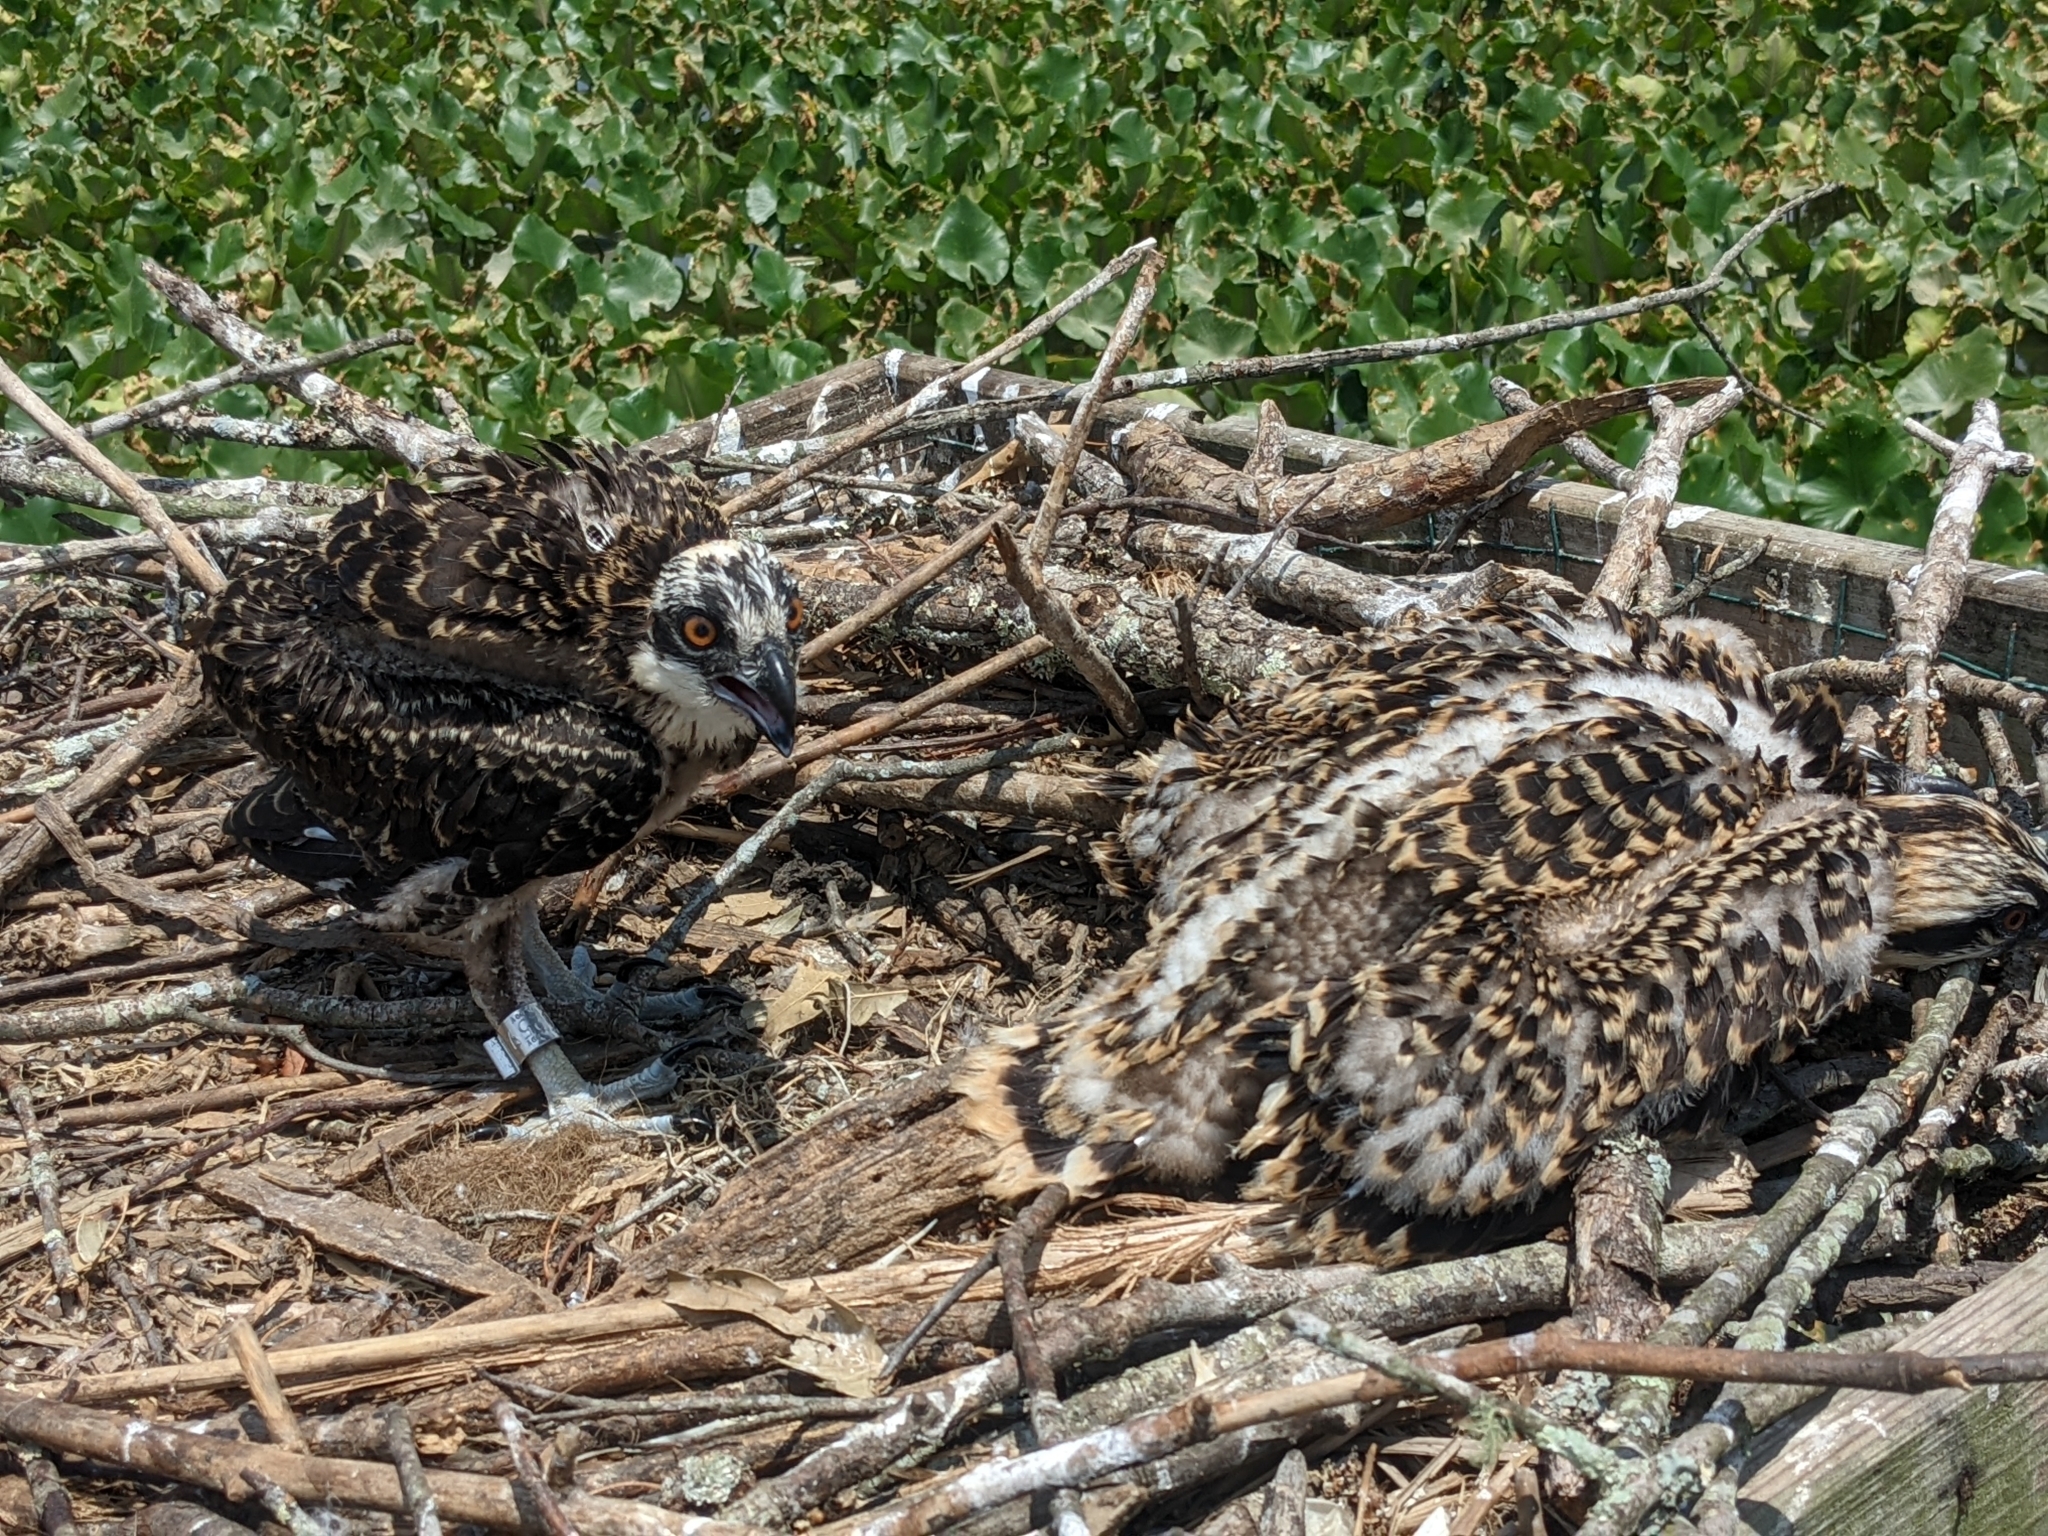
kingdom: Animalia
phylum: Chordata
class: Aves
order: Accipitriformes
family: Pandionidae
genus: Pandion
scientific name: Pandion haliaetus
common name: Osprey
